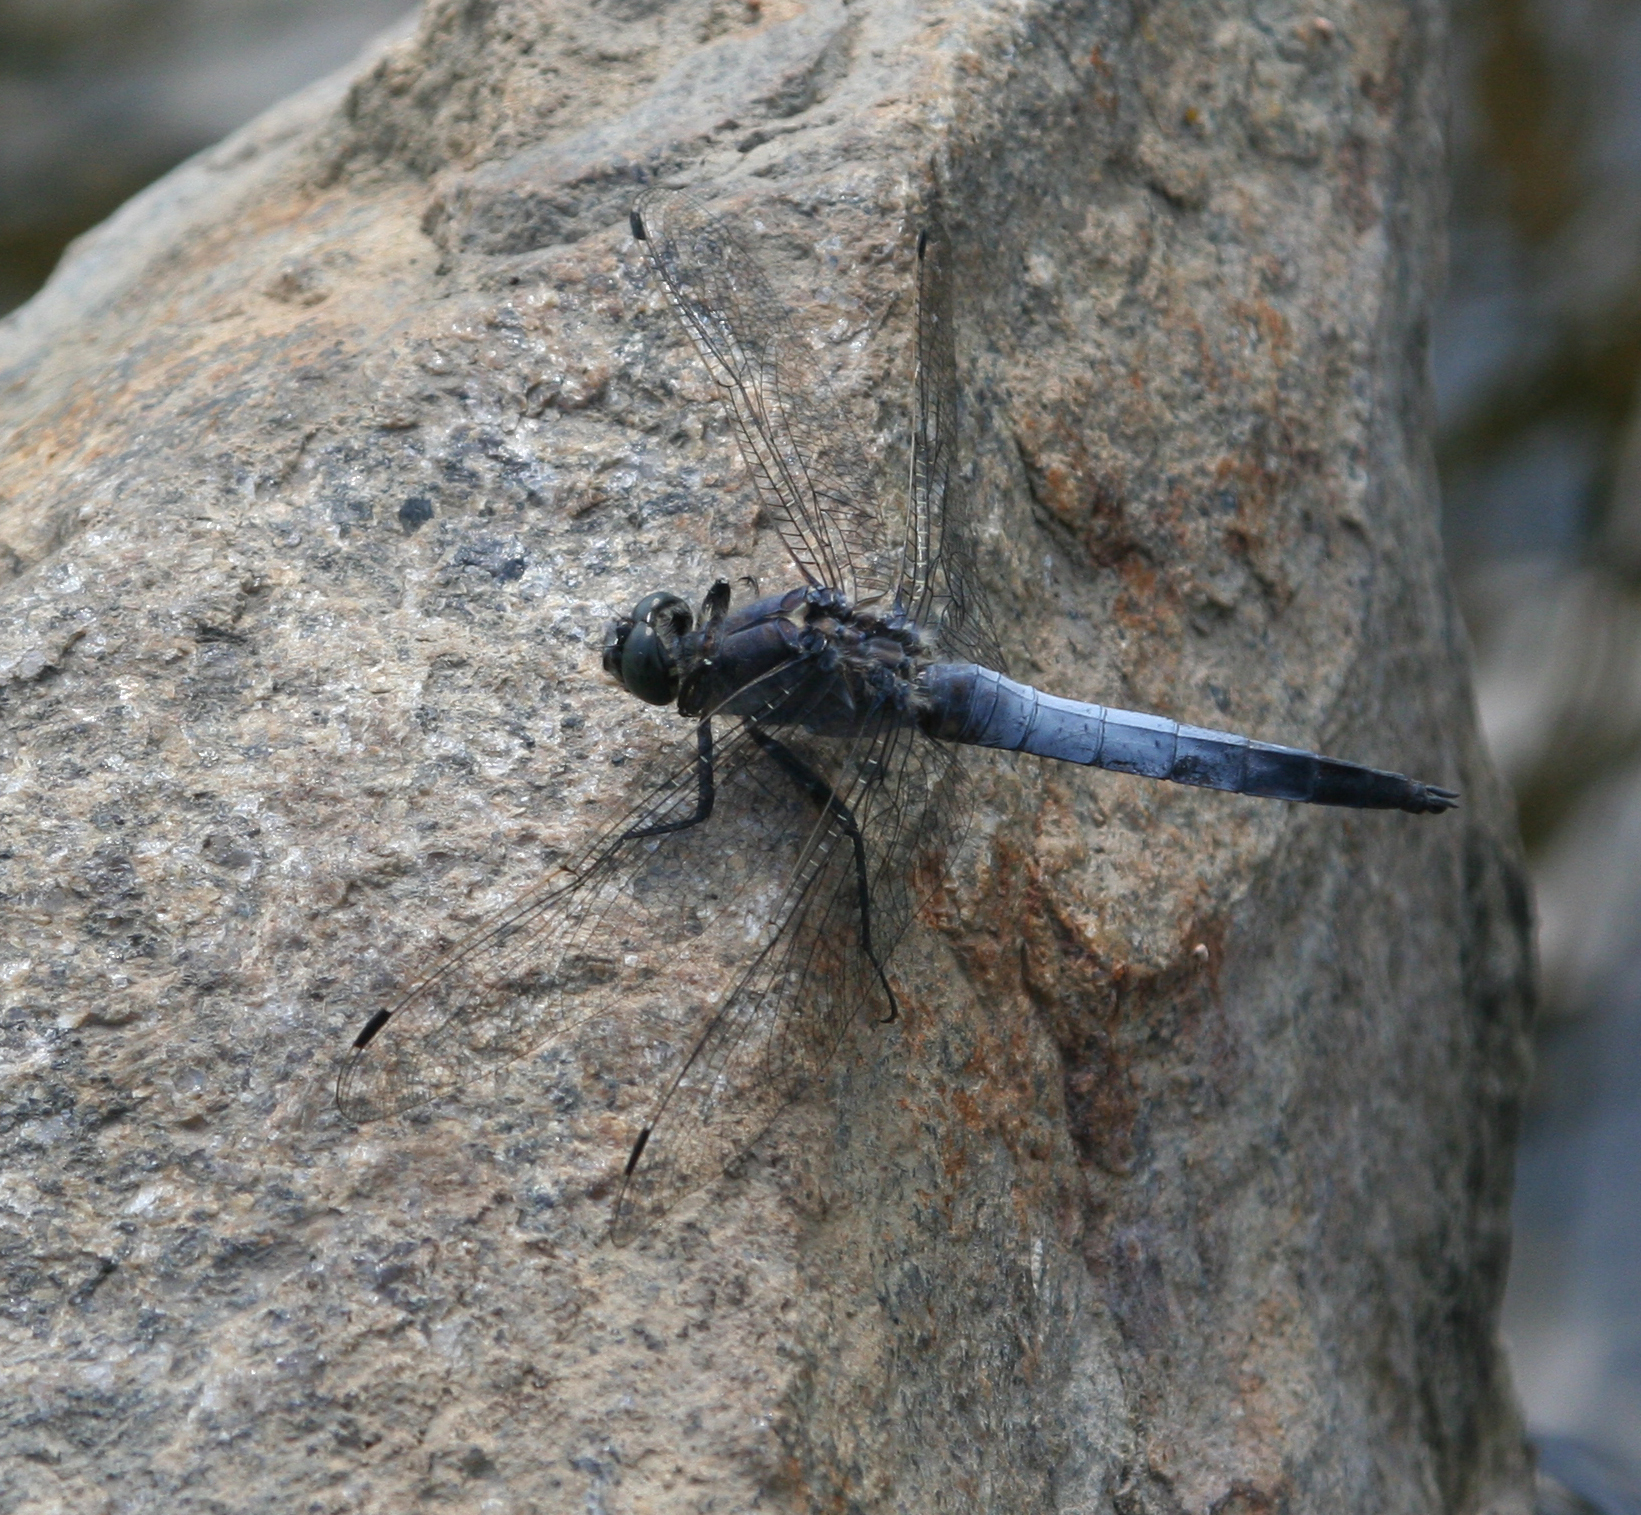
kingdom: Animalia
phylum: Arthropoda
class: Insecta
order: Odonata
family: Libellulidae
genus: Orthetrum
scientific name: Orthetrum cancellatum
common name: Black-tailed skimmer
